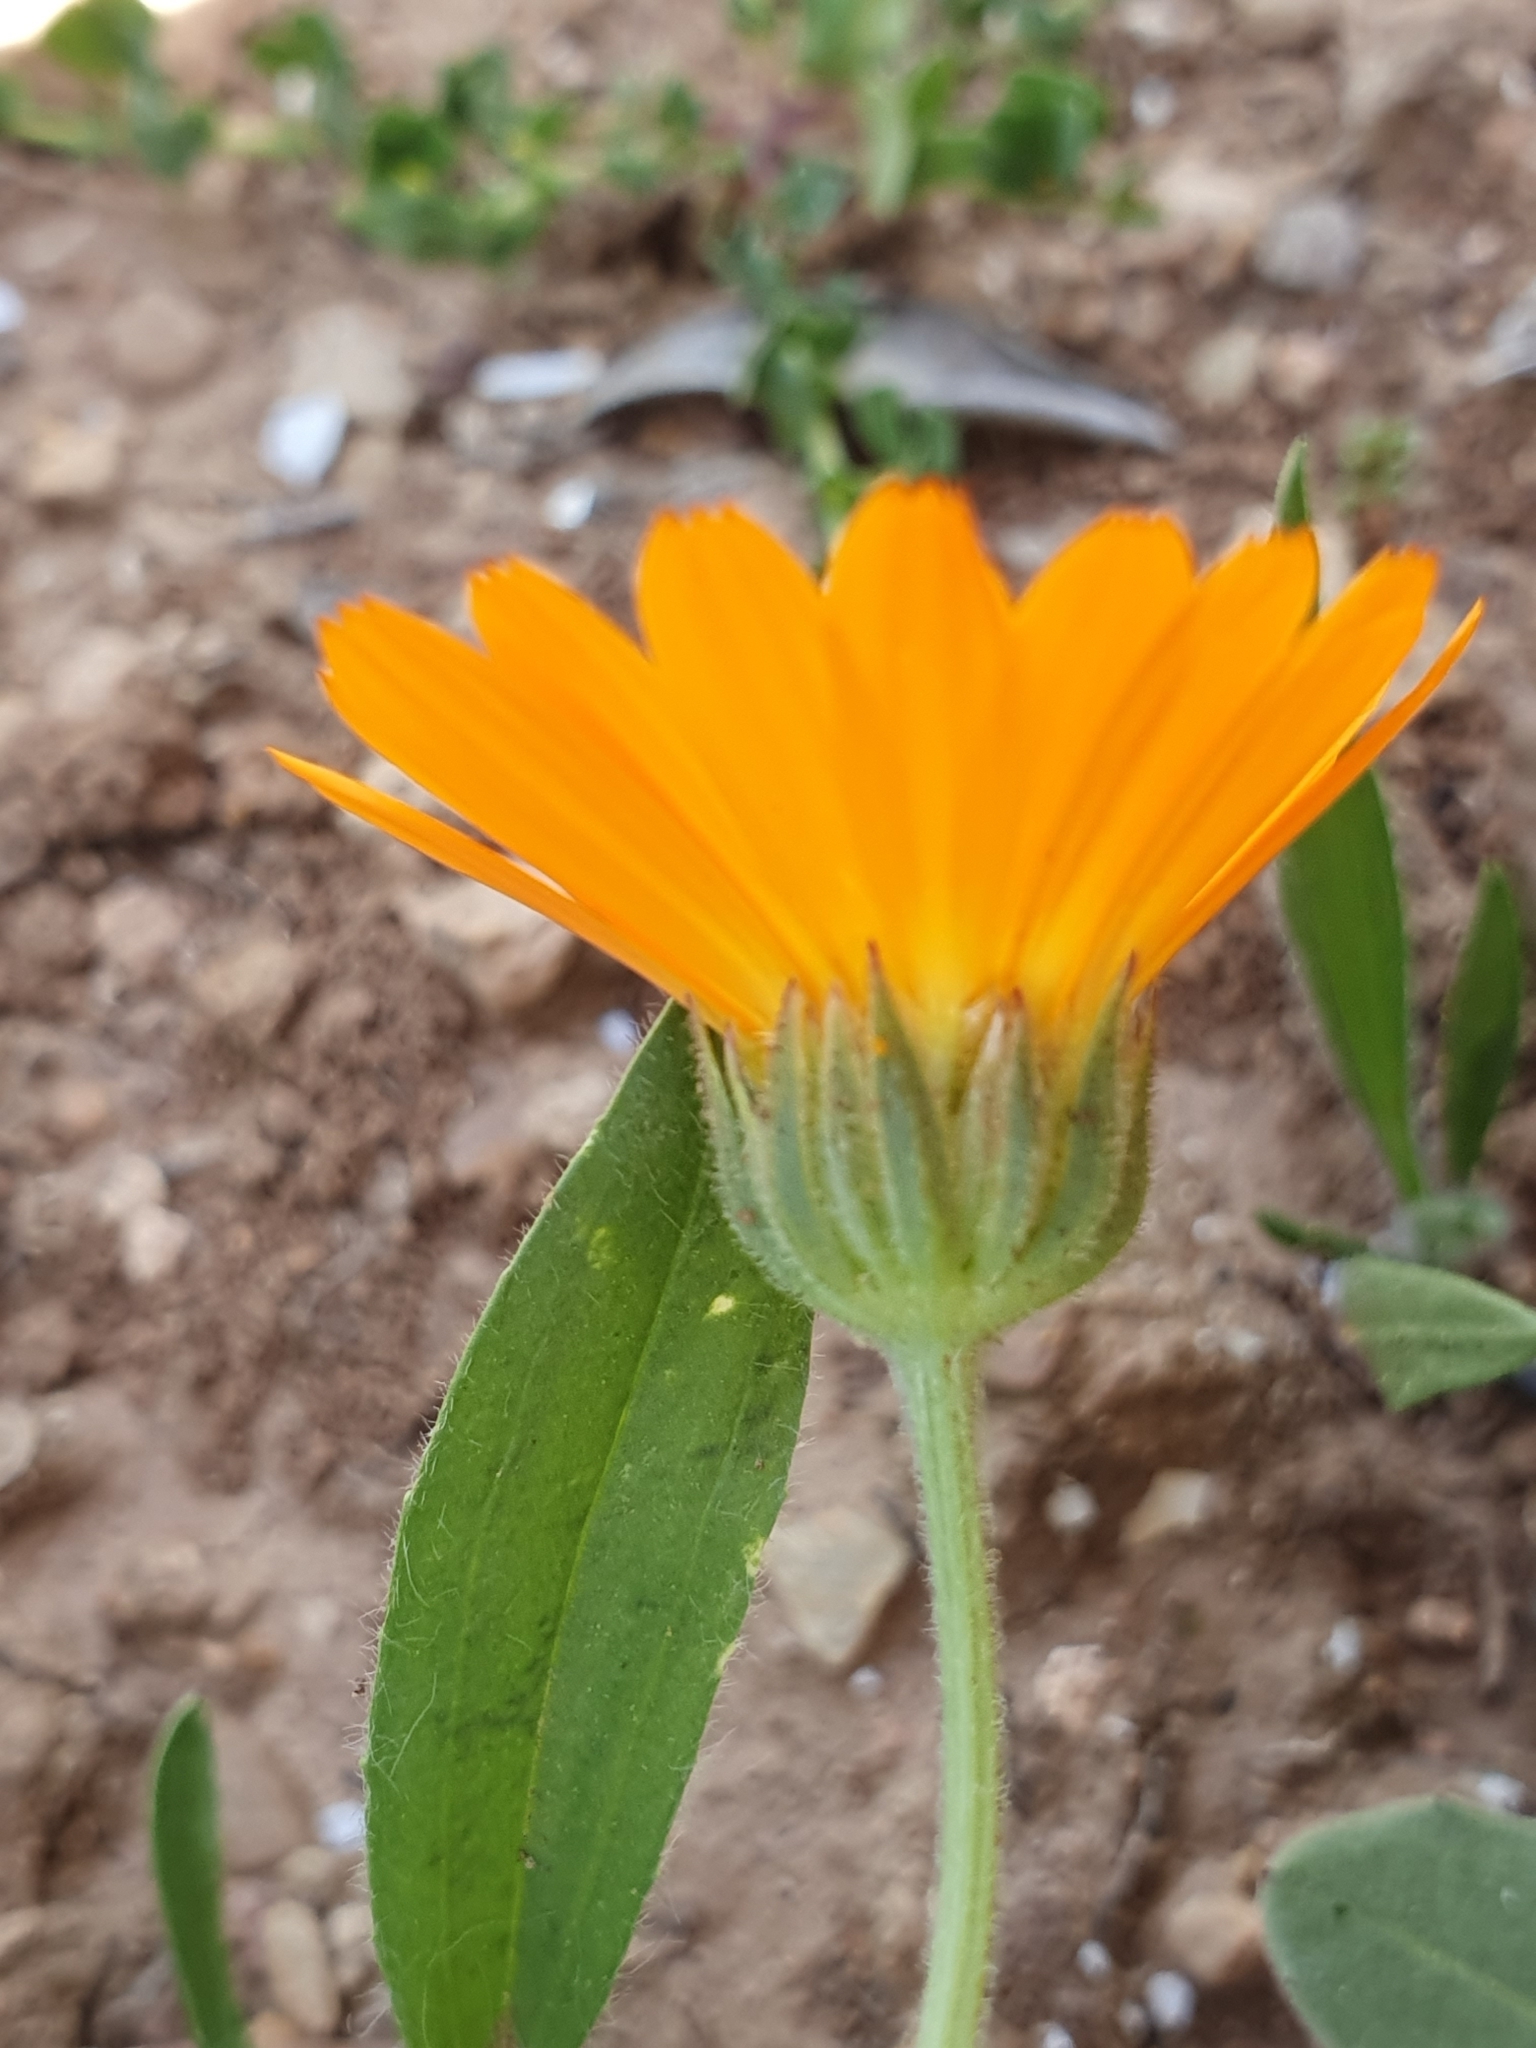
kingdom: Plantae
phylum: Tracheophyta
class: Magnoliopsida
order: Asterales
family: Asteraceae
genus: Calendula
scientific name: Calendula arvensis
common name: Field marigold
